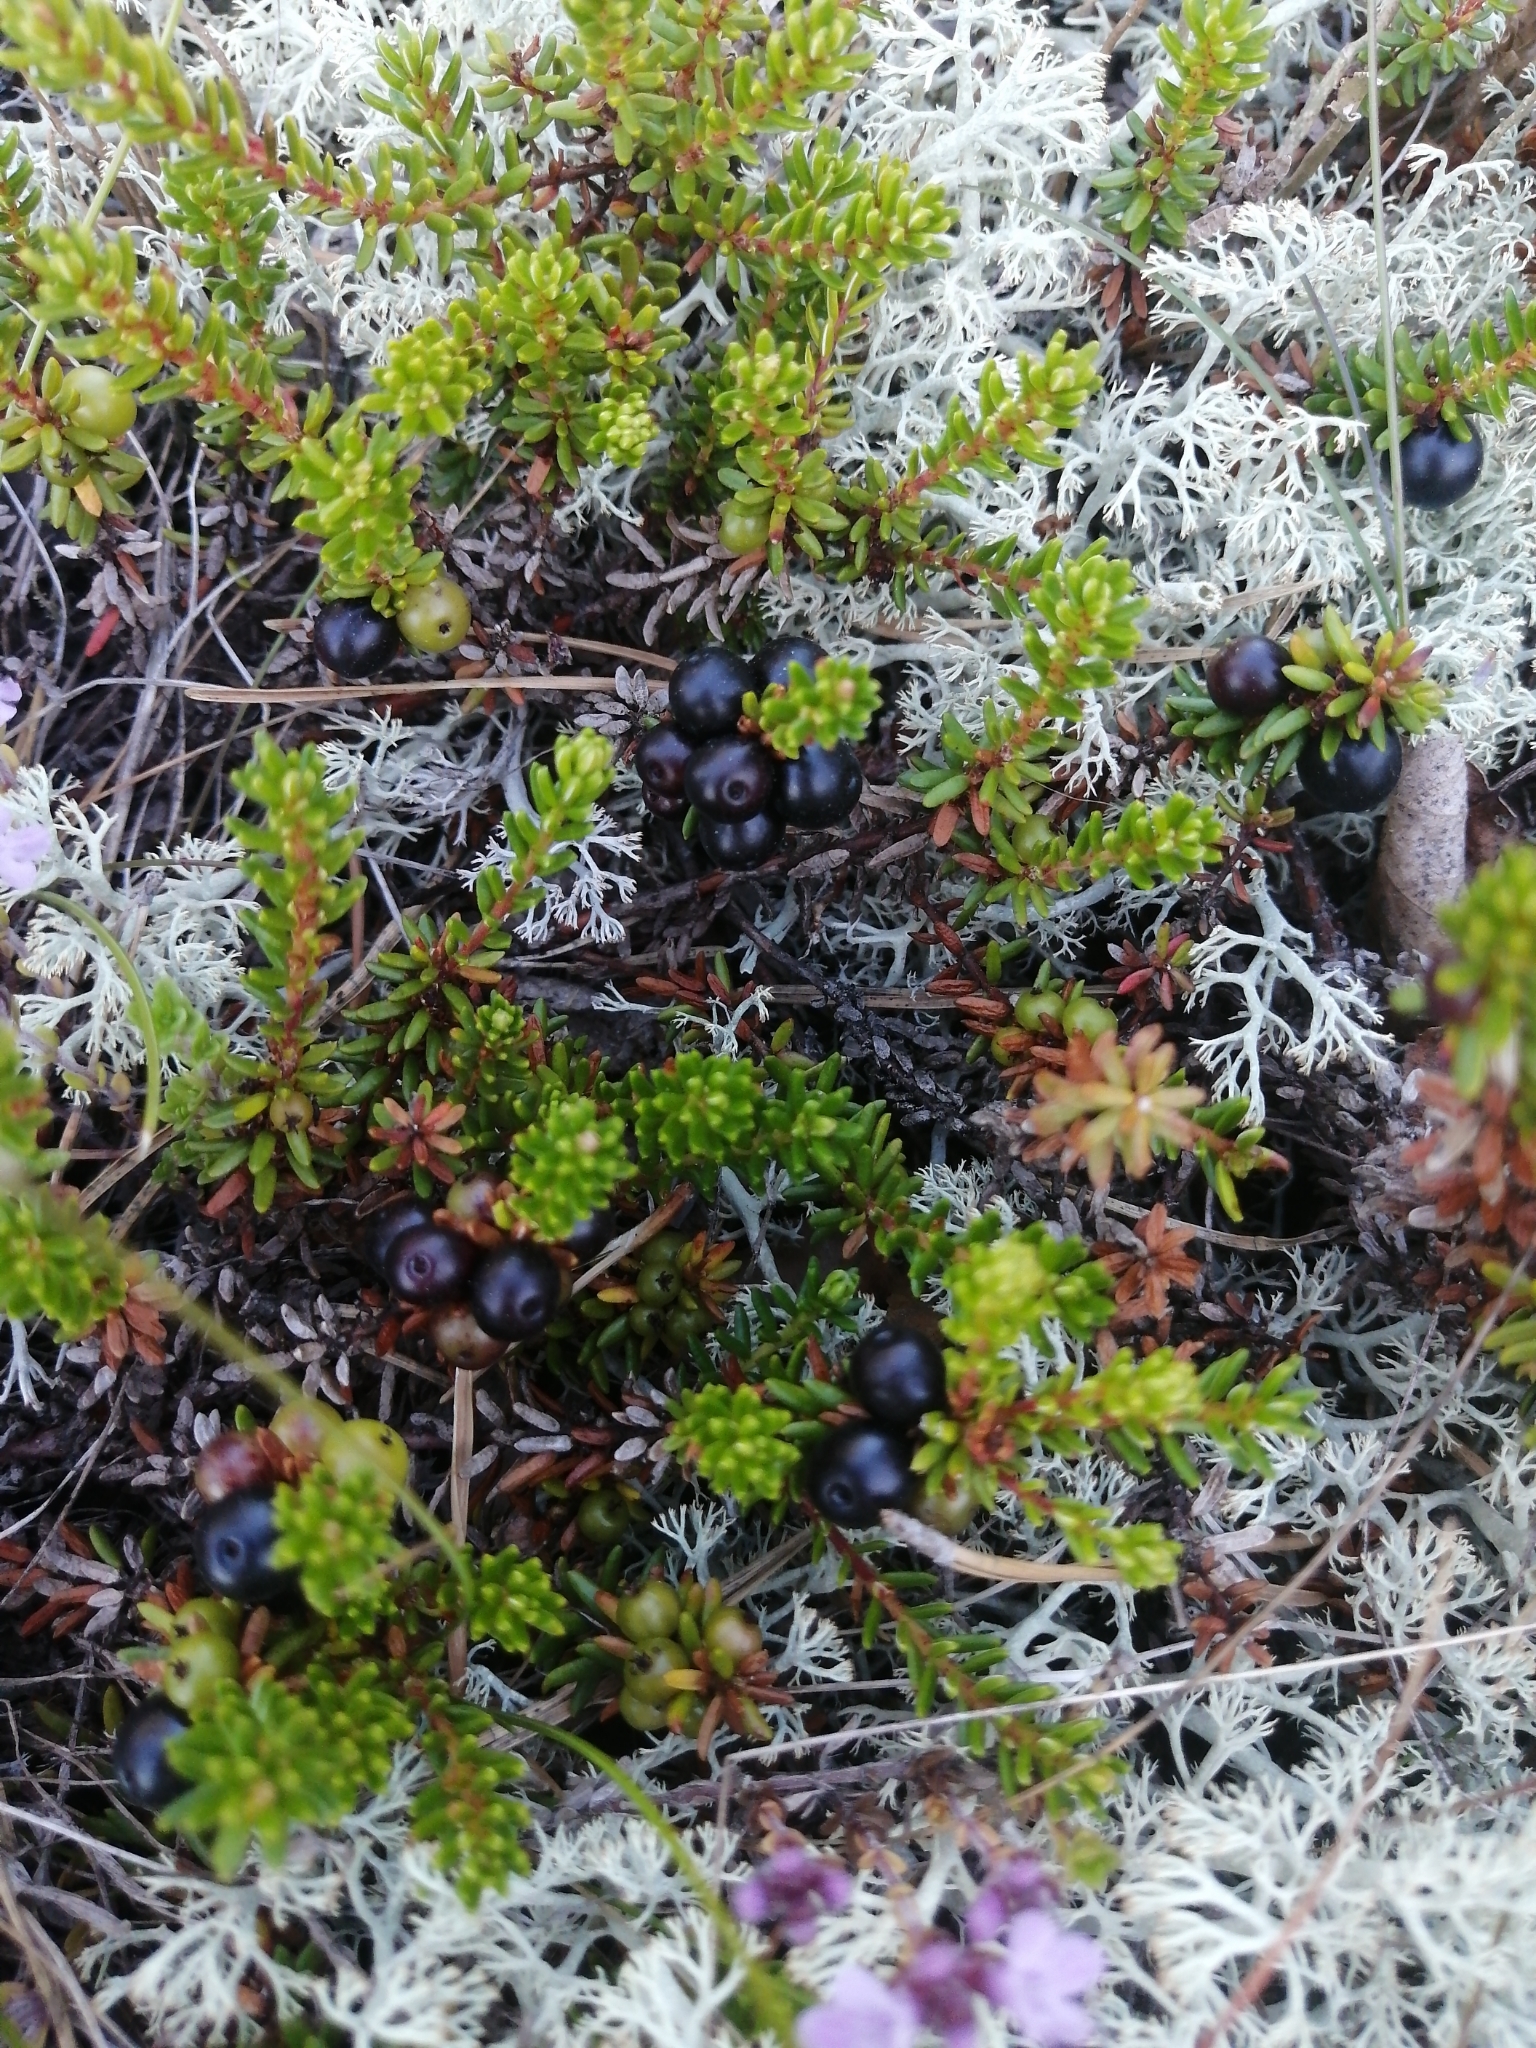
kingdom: Plantae
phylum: Tracheophyta
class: Magnoliopsida
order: Ericales
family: Ericaceae
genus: Empetrum
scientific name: Empetrum nigrum
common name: Black crowberry
